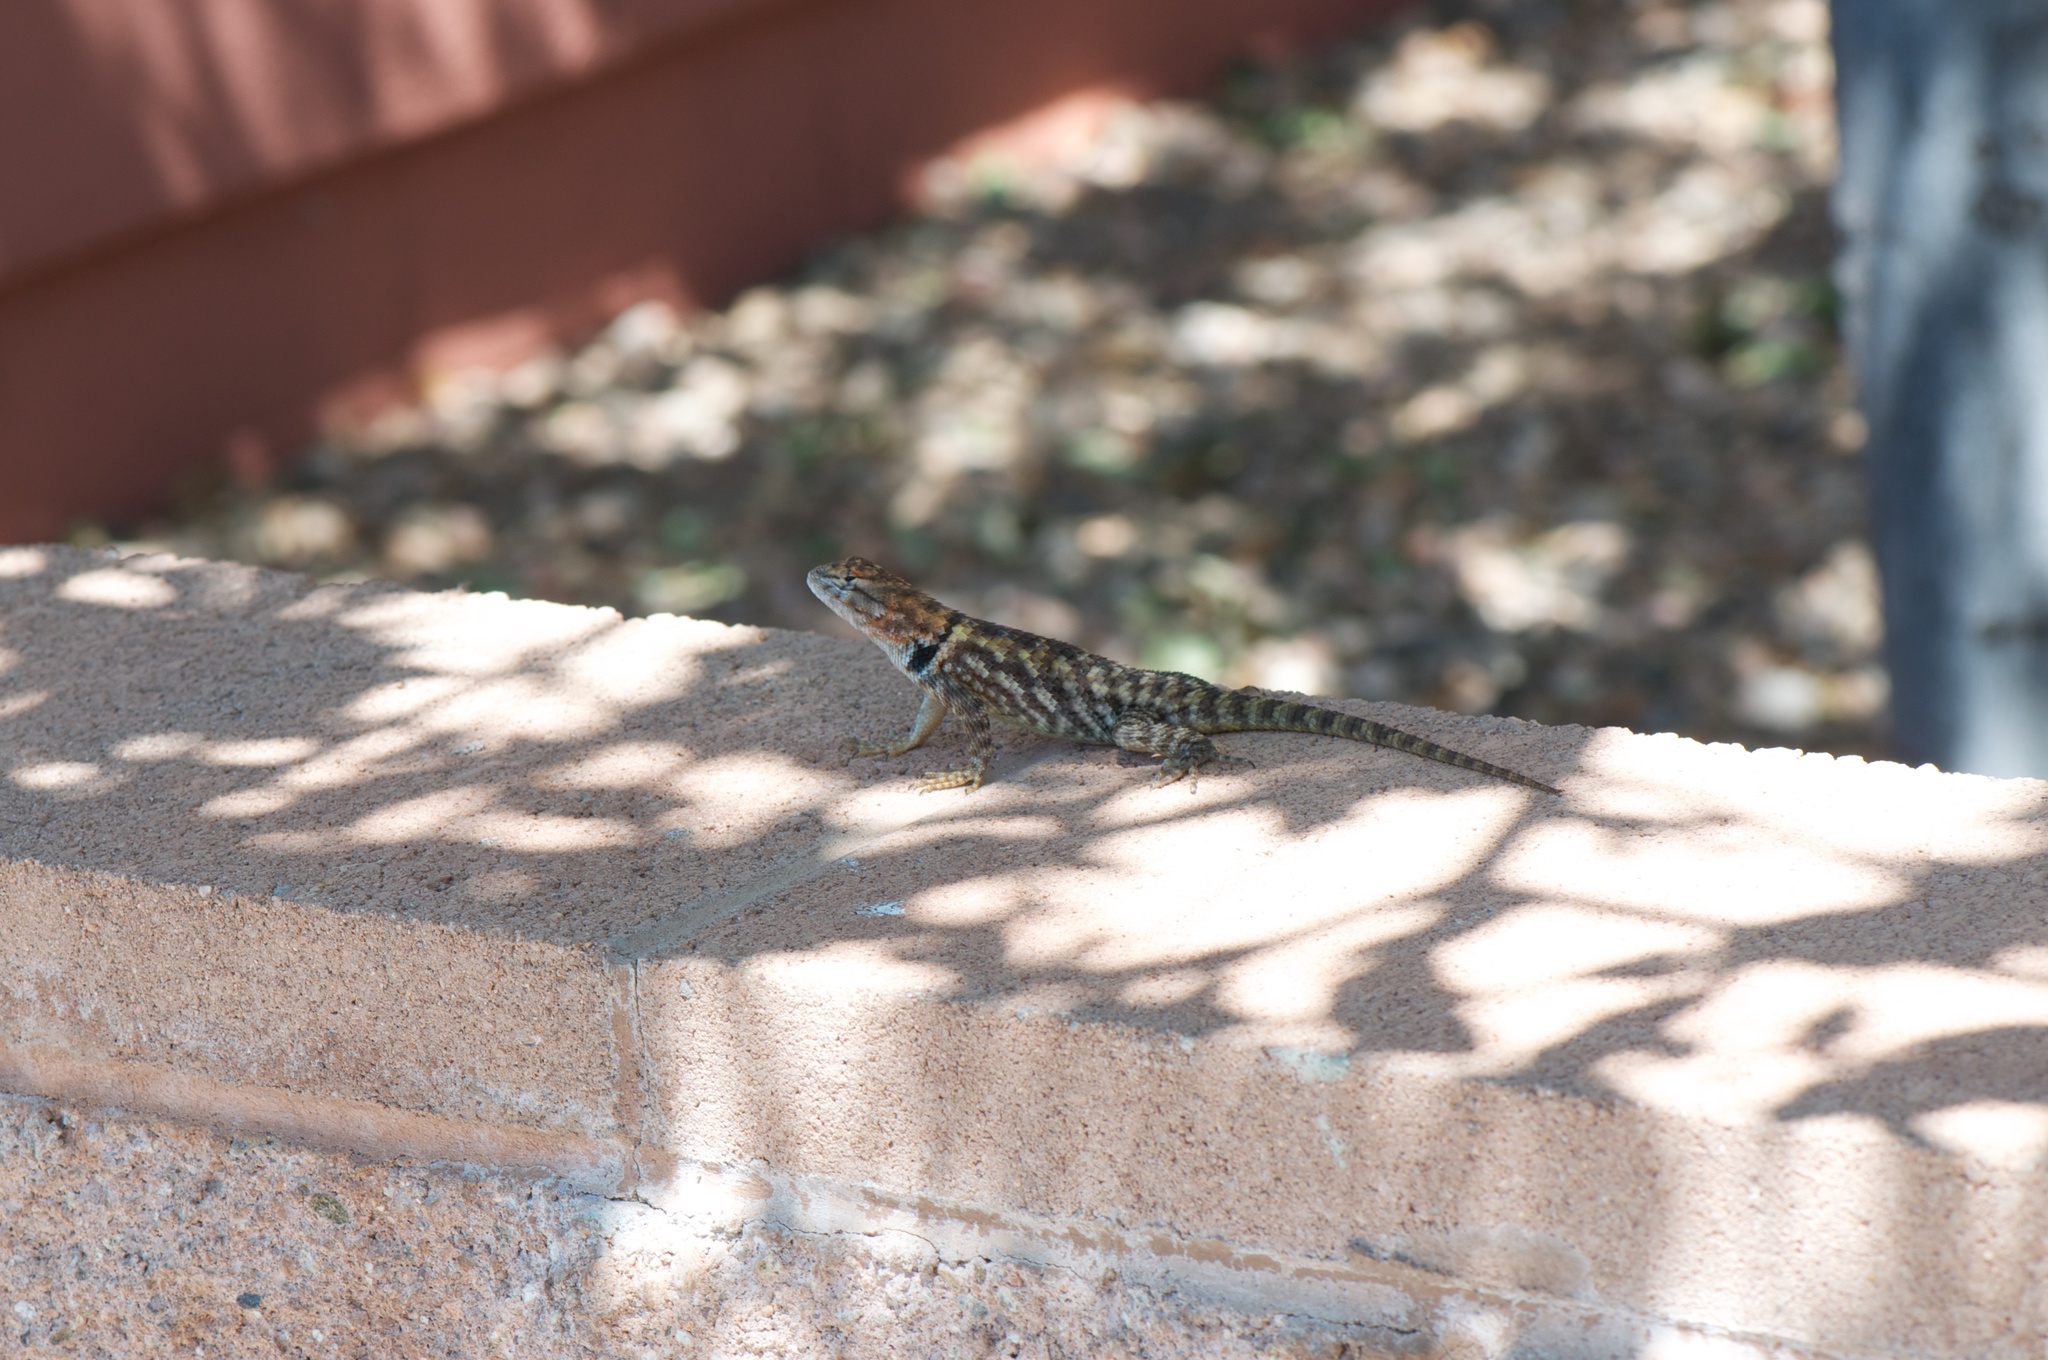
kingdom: Animalia
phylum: Chordata
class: Squamata
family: Phrynosomatidae
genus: Sceloporus
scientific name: Sceloporus magister
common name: Desert spiny lizard
